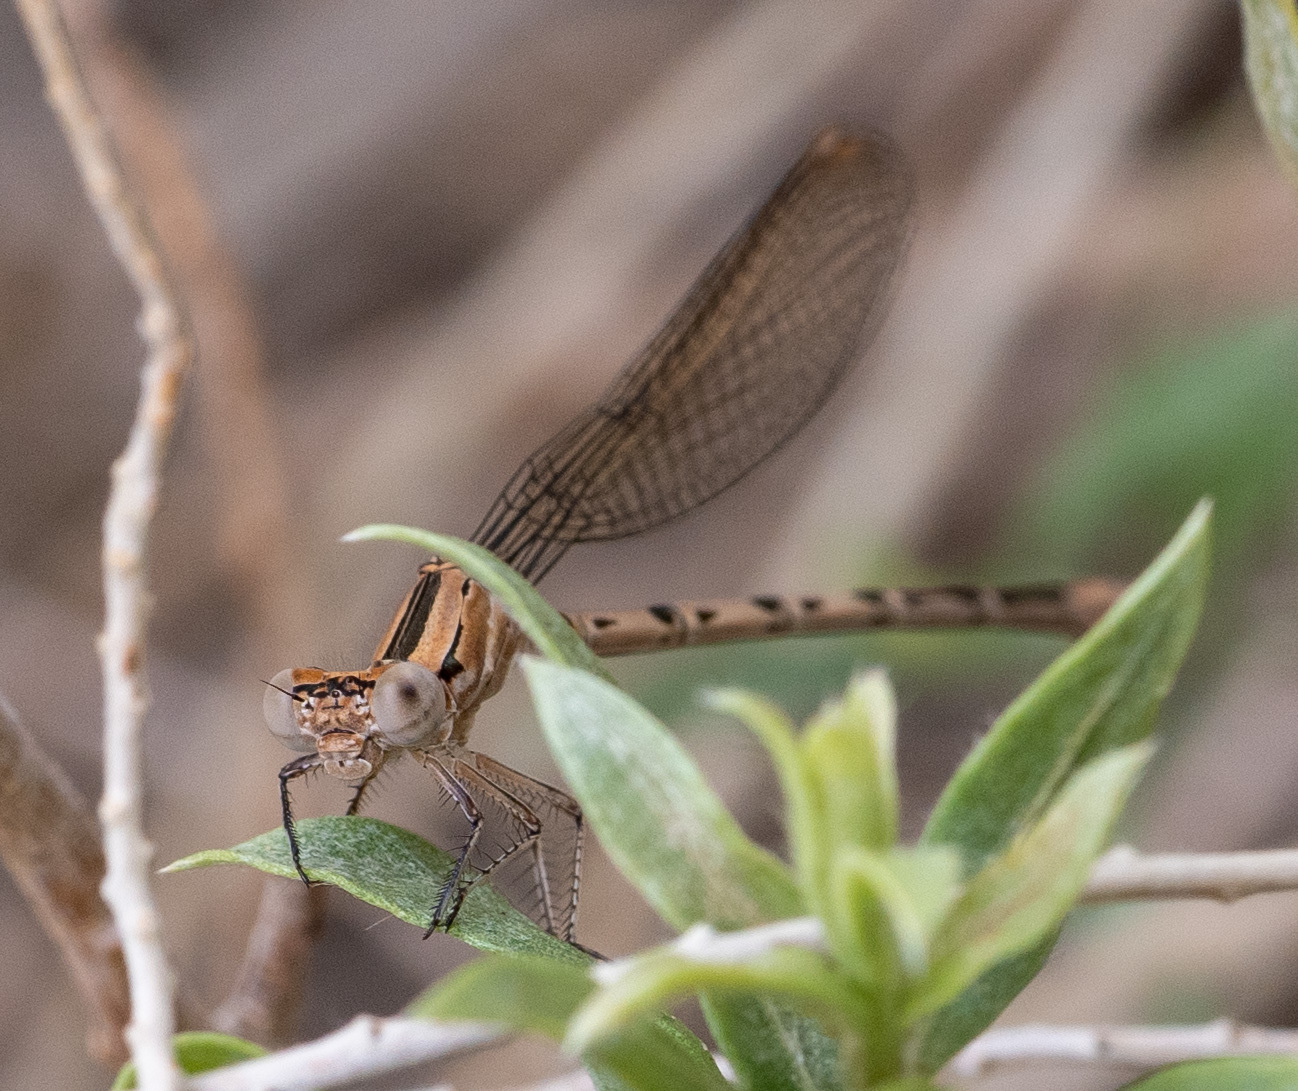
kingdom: Animalia
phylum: Arthropoda
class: Insecta
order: Odonata
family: Coenagrionidae
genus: Argia
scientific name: Argia vivida
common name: Vivid dancer
